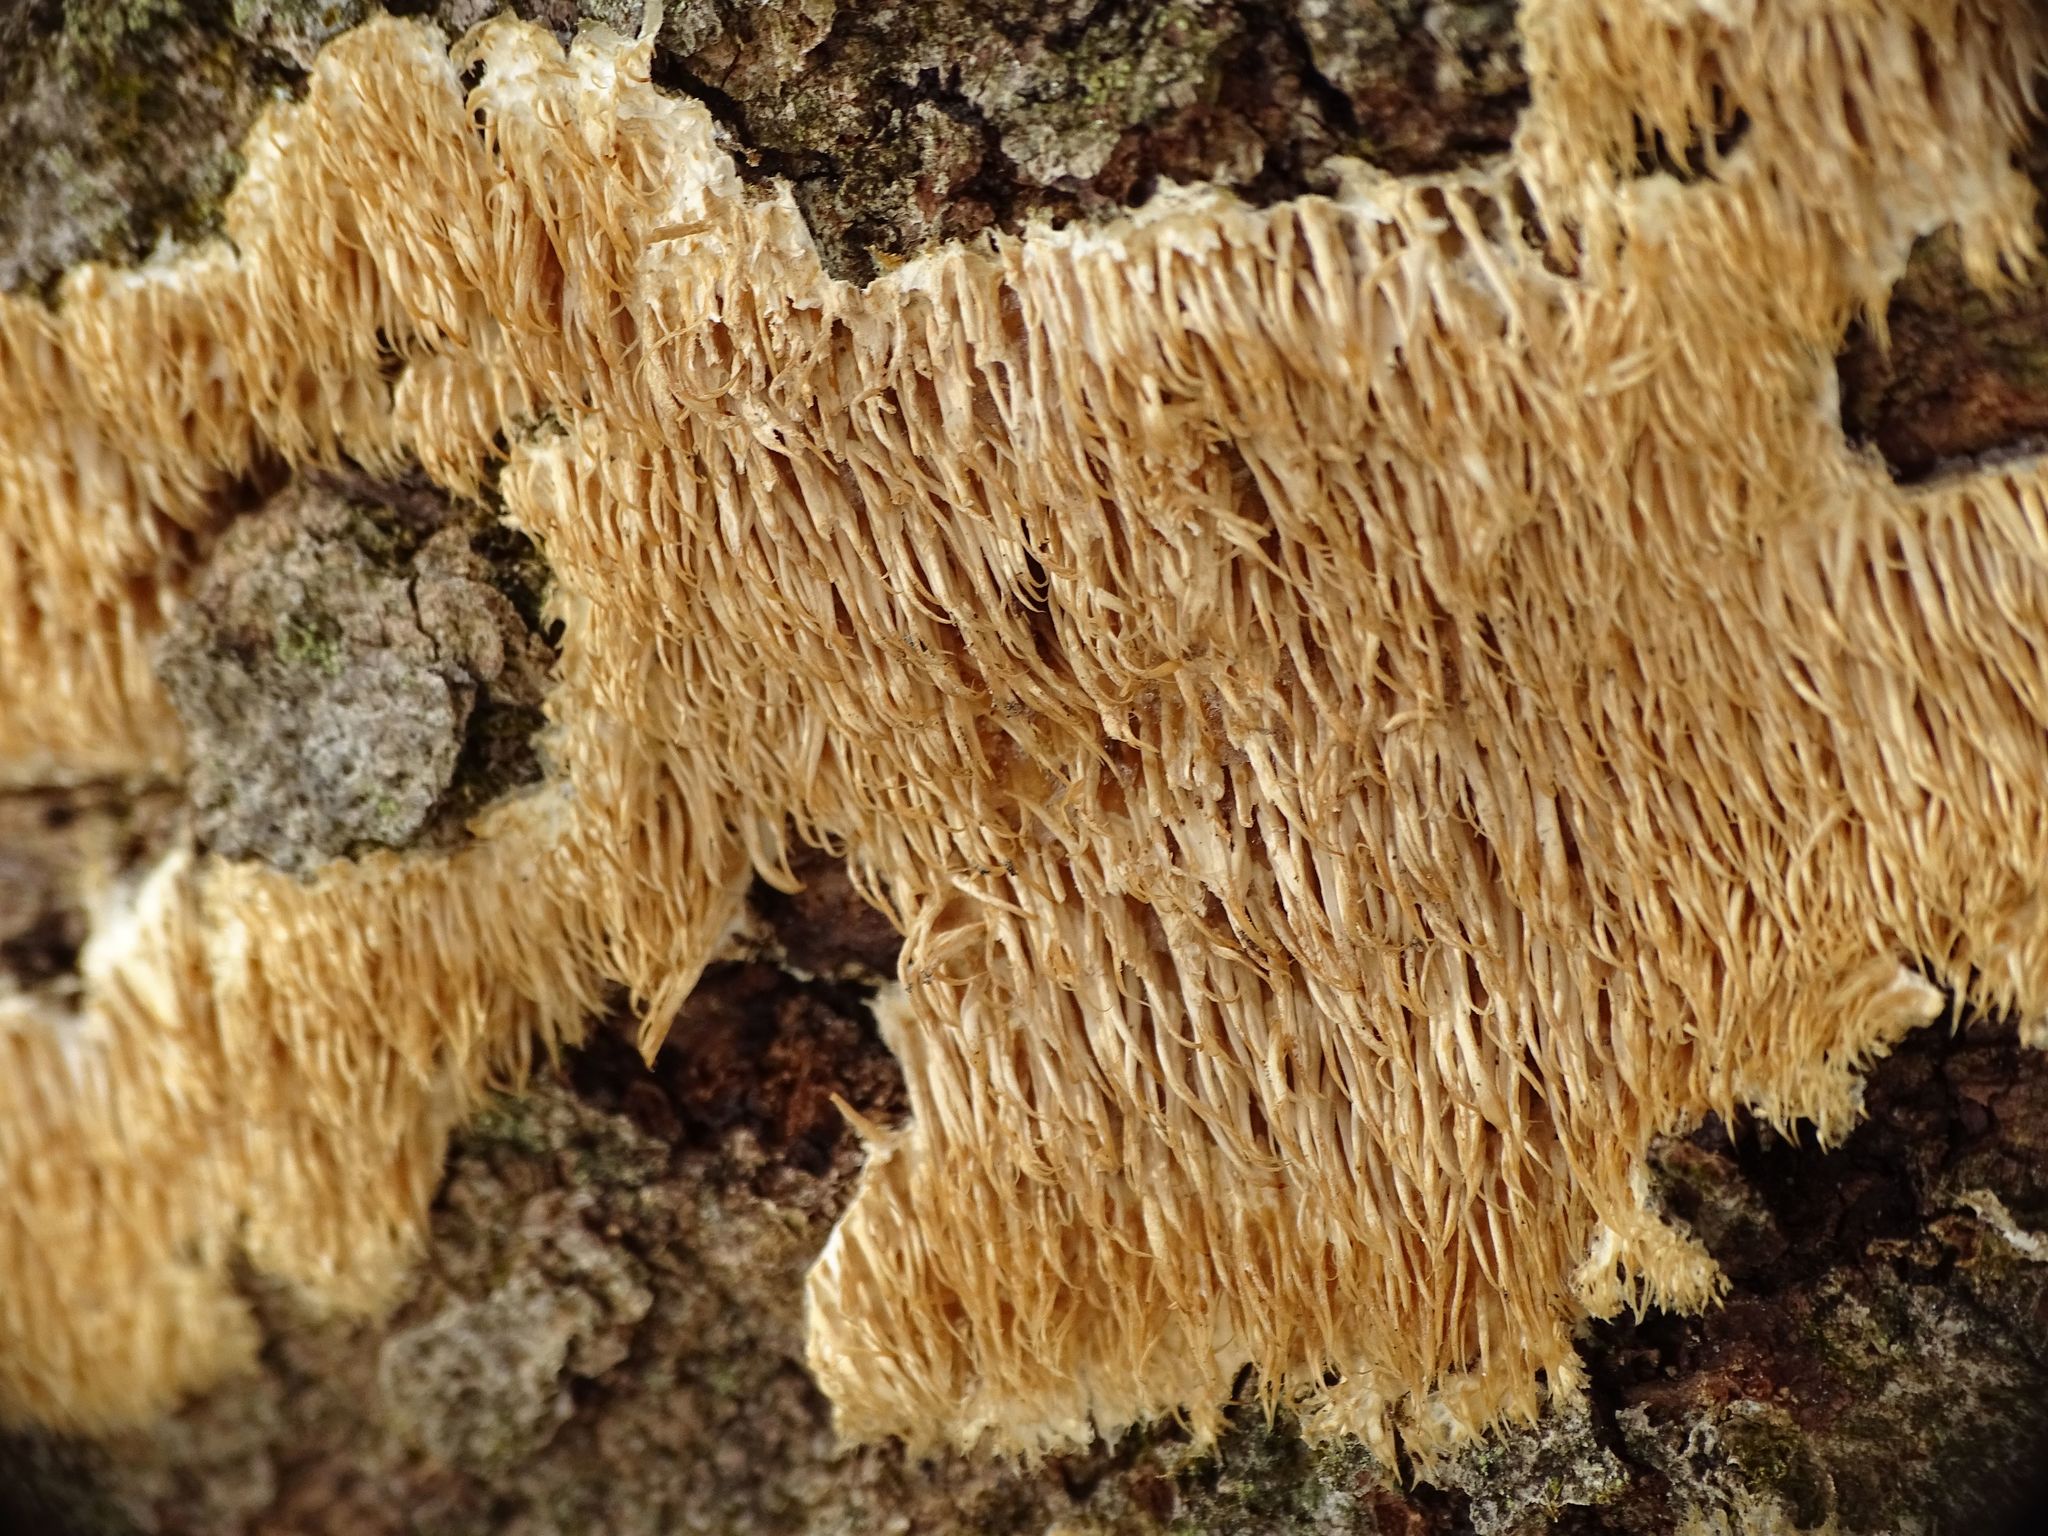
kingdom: Fungi
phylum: Basidiomycota
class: Agaricomycetes
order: Agaricales
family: Radulomycetaceae
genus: Radulomyces
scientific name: Radulomyces copelandii
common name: Asian beauty
